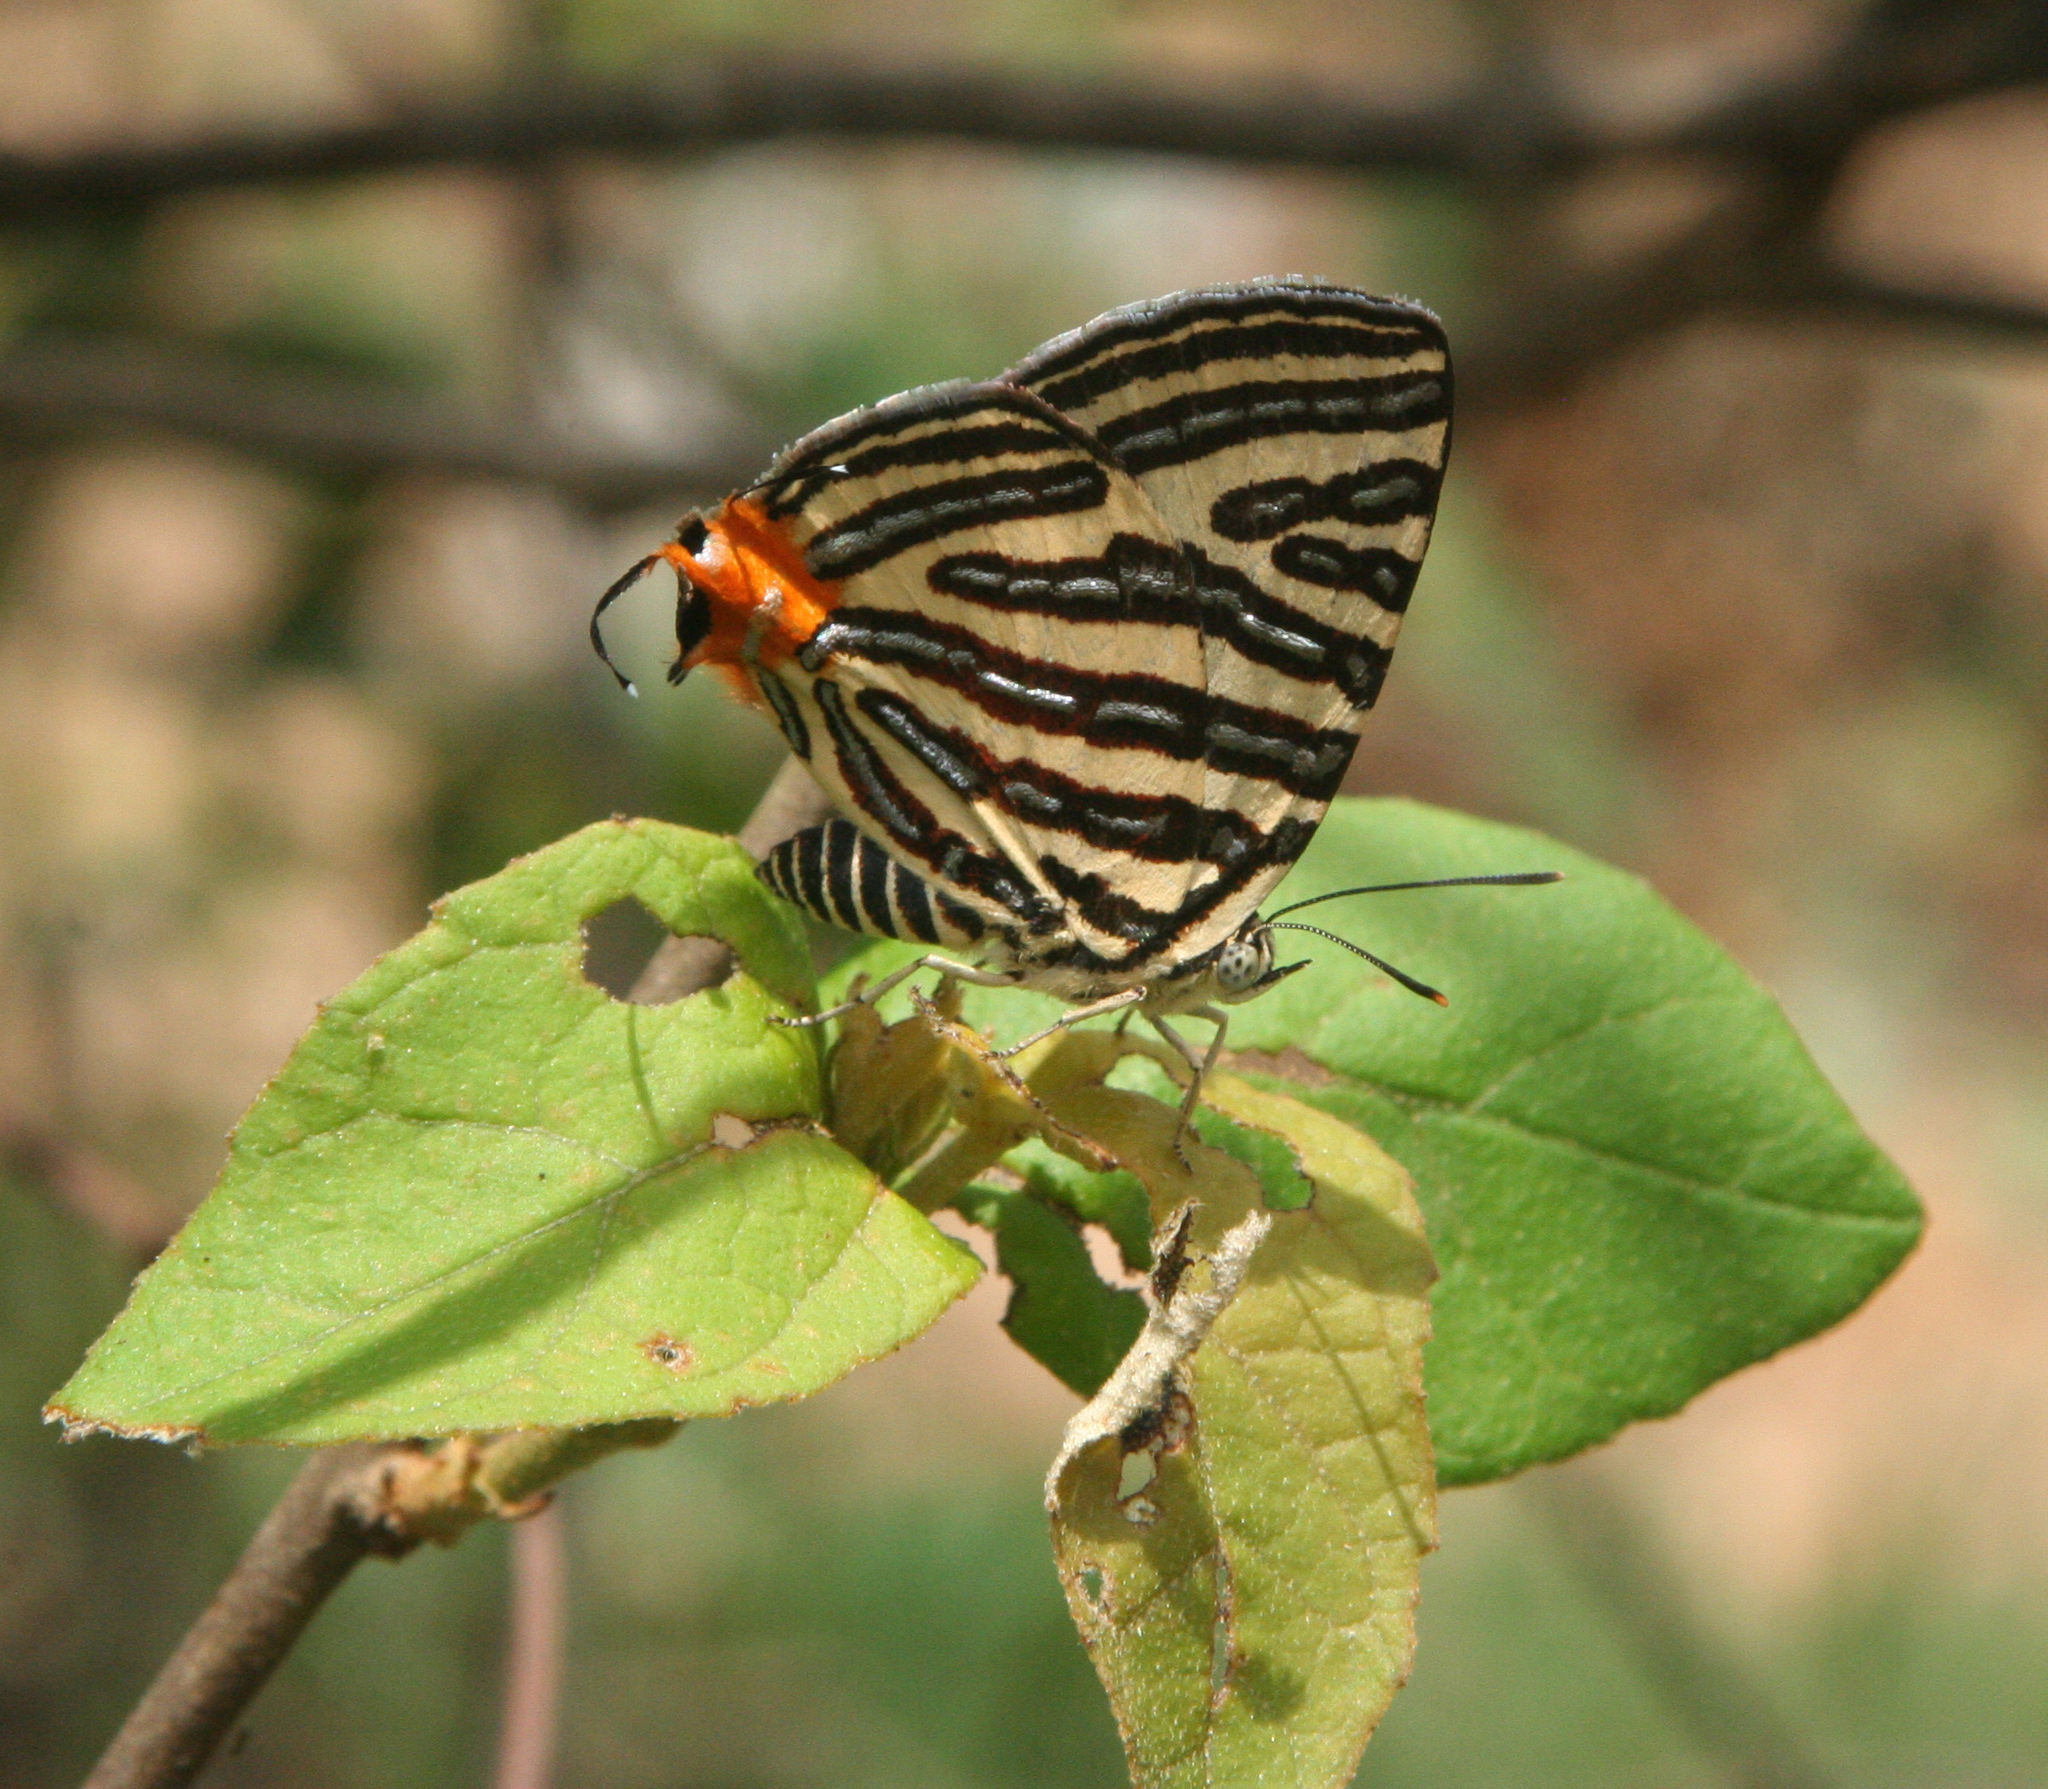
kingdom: Animalia
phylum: Arthropoda
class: Insecta
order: Lepidoptera
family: Lycaenidae
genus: Cigaritis
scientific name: Cigaritis lohita
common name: Long-banded silverline
